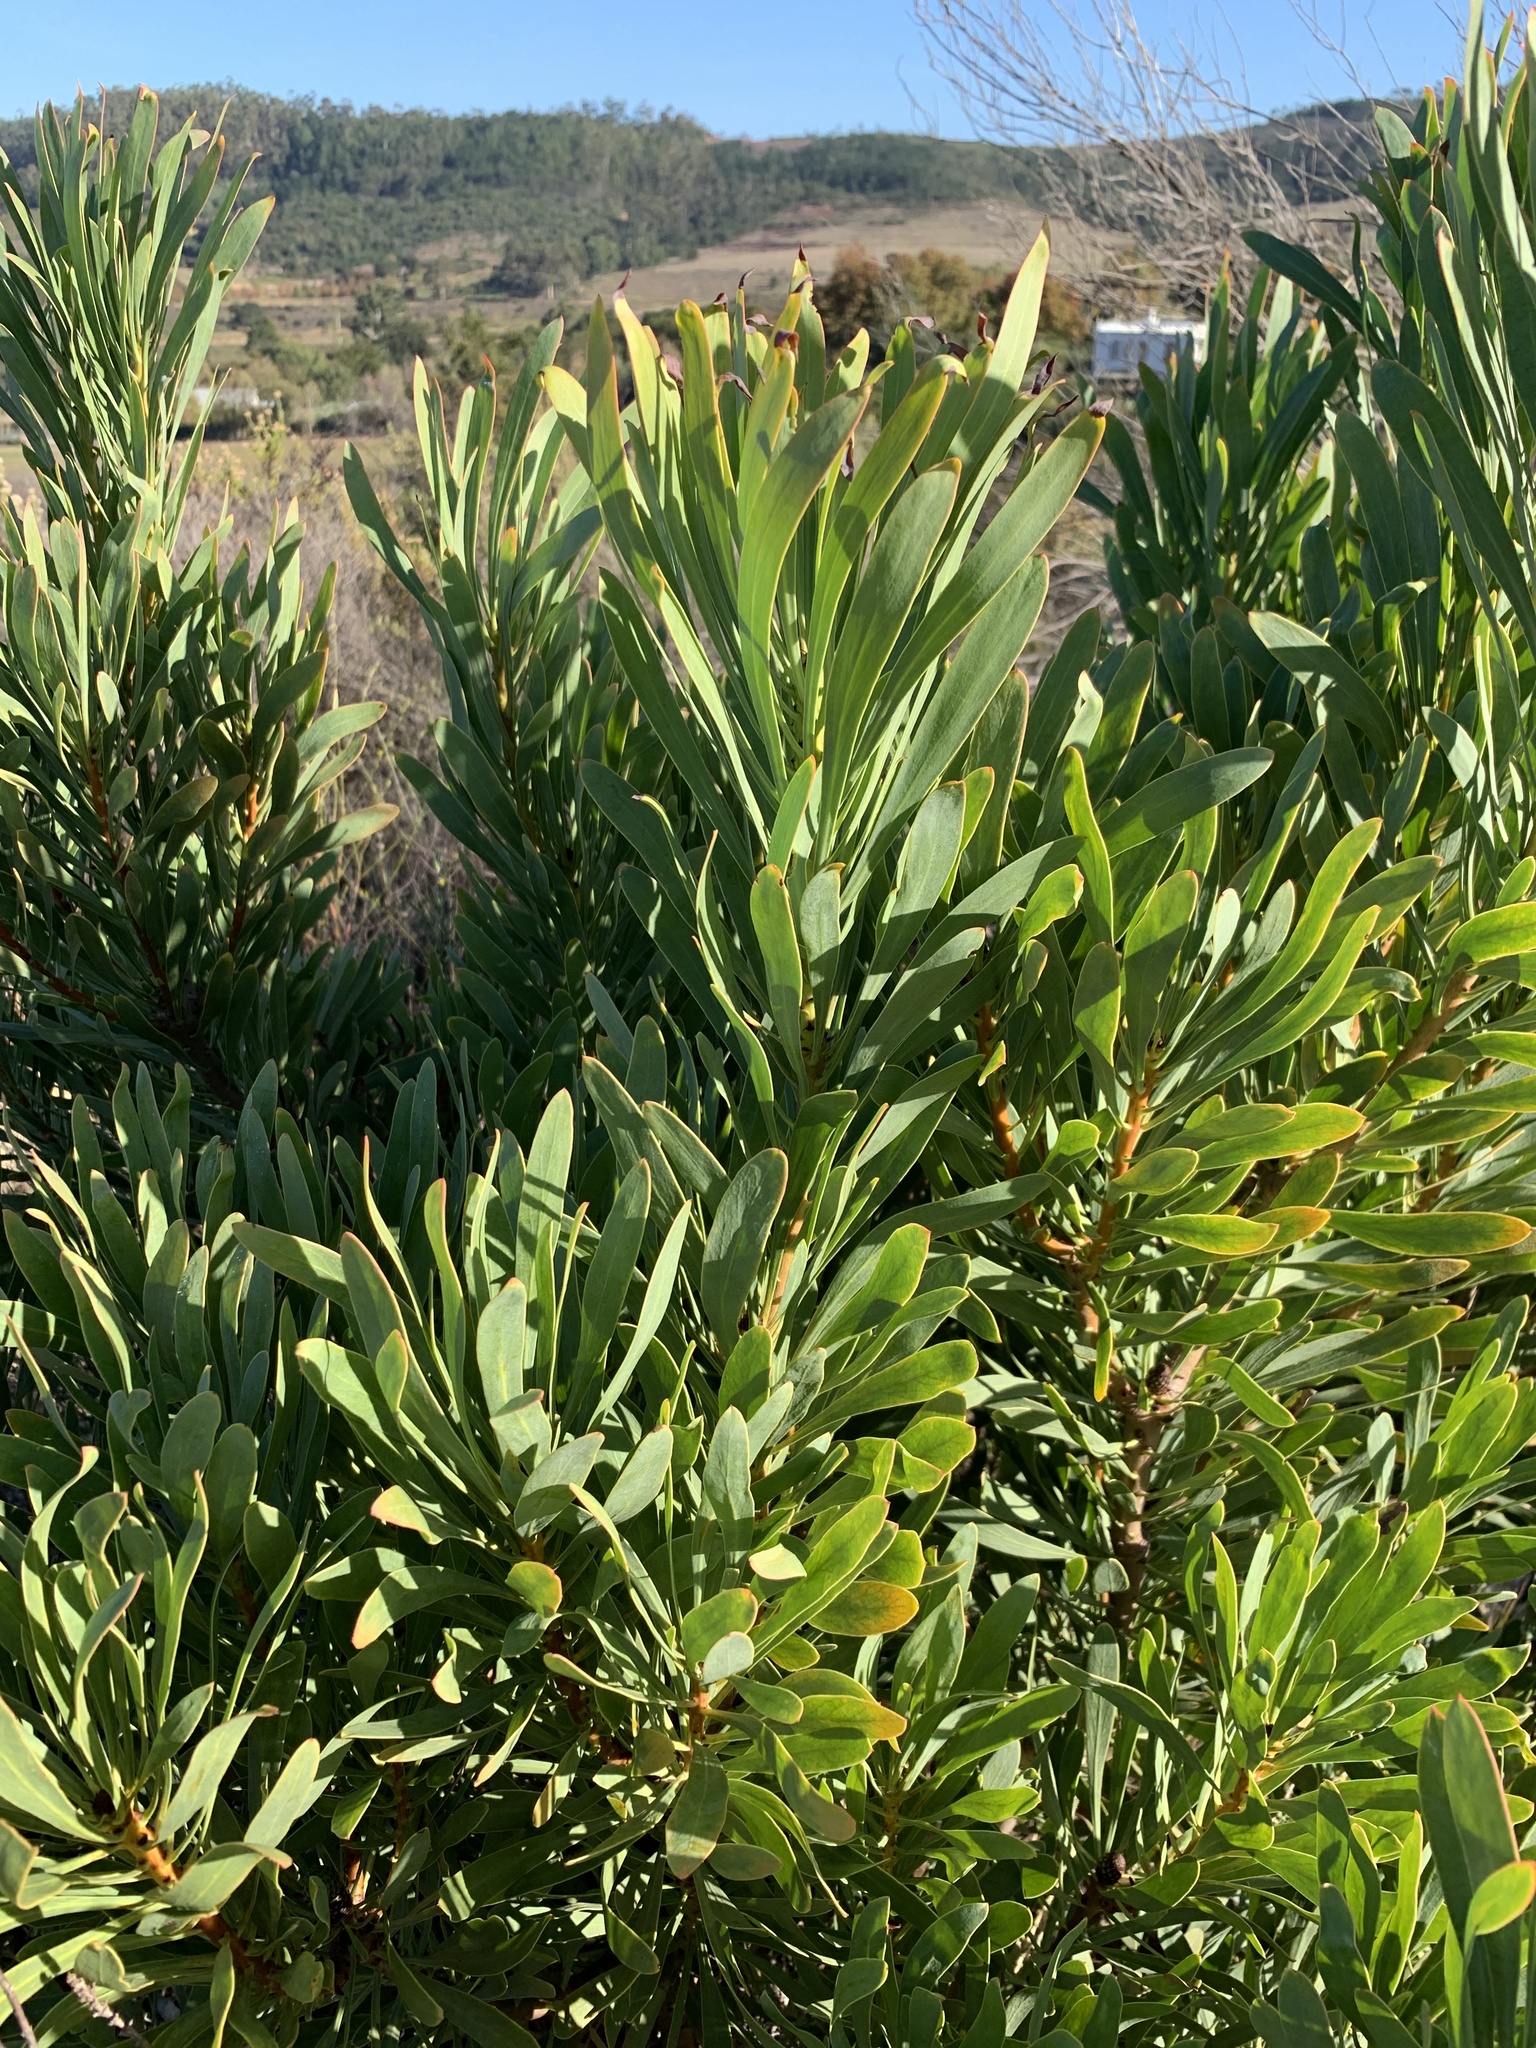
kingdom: Plantae
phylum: Tracheophyta
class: Magnoliopsida
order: Proteales
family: Proteaceae
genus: Protea
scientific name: Protea repens
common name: Sugarbush
